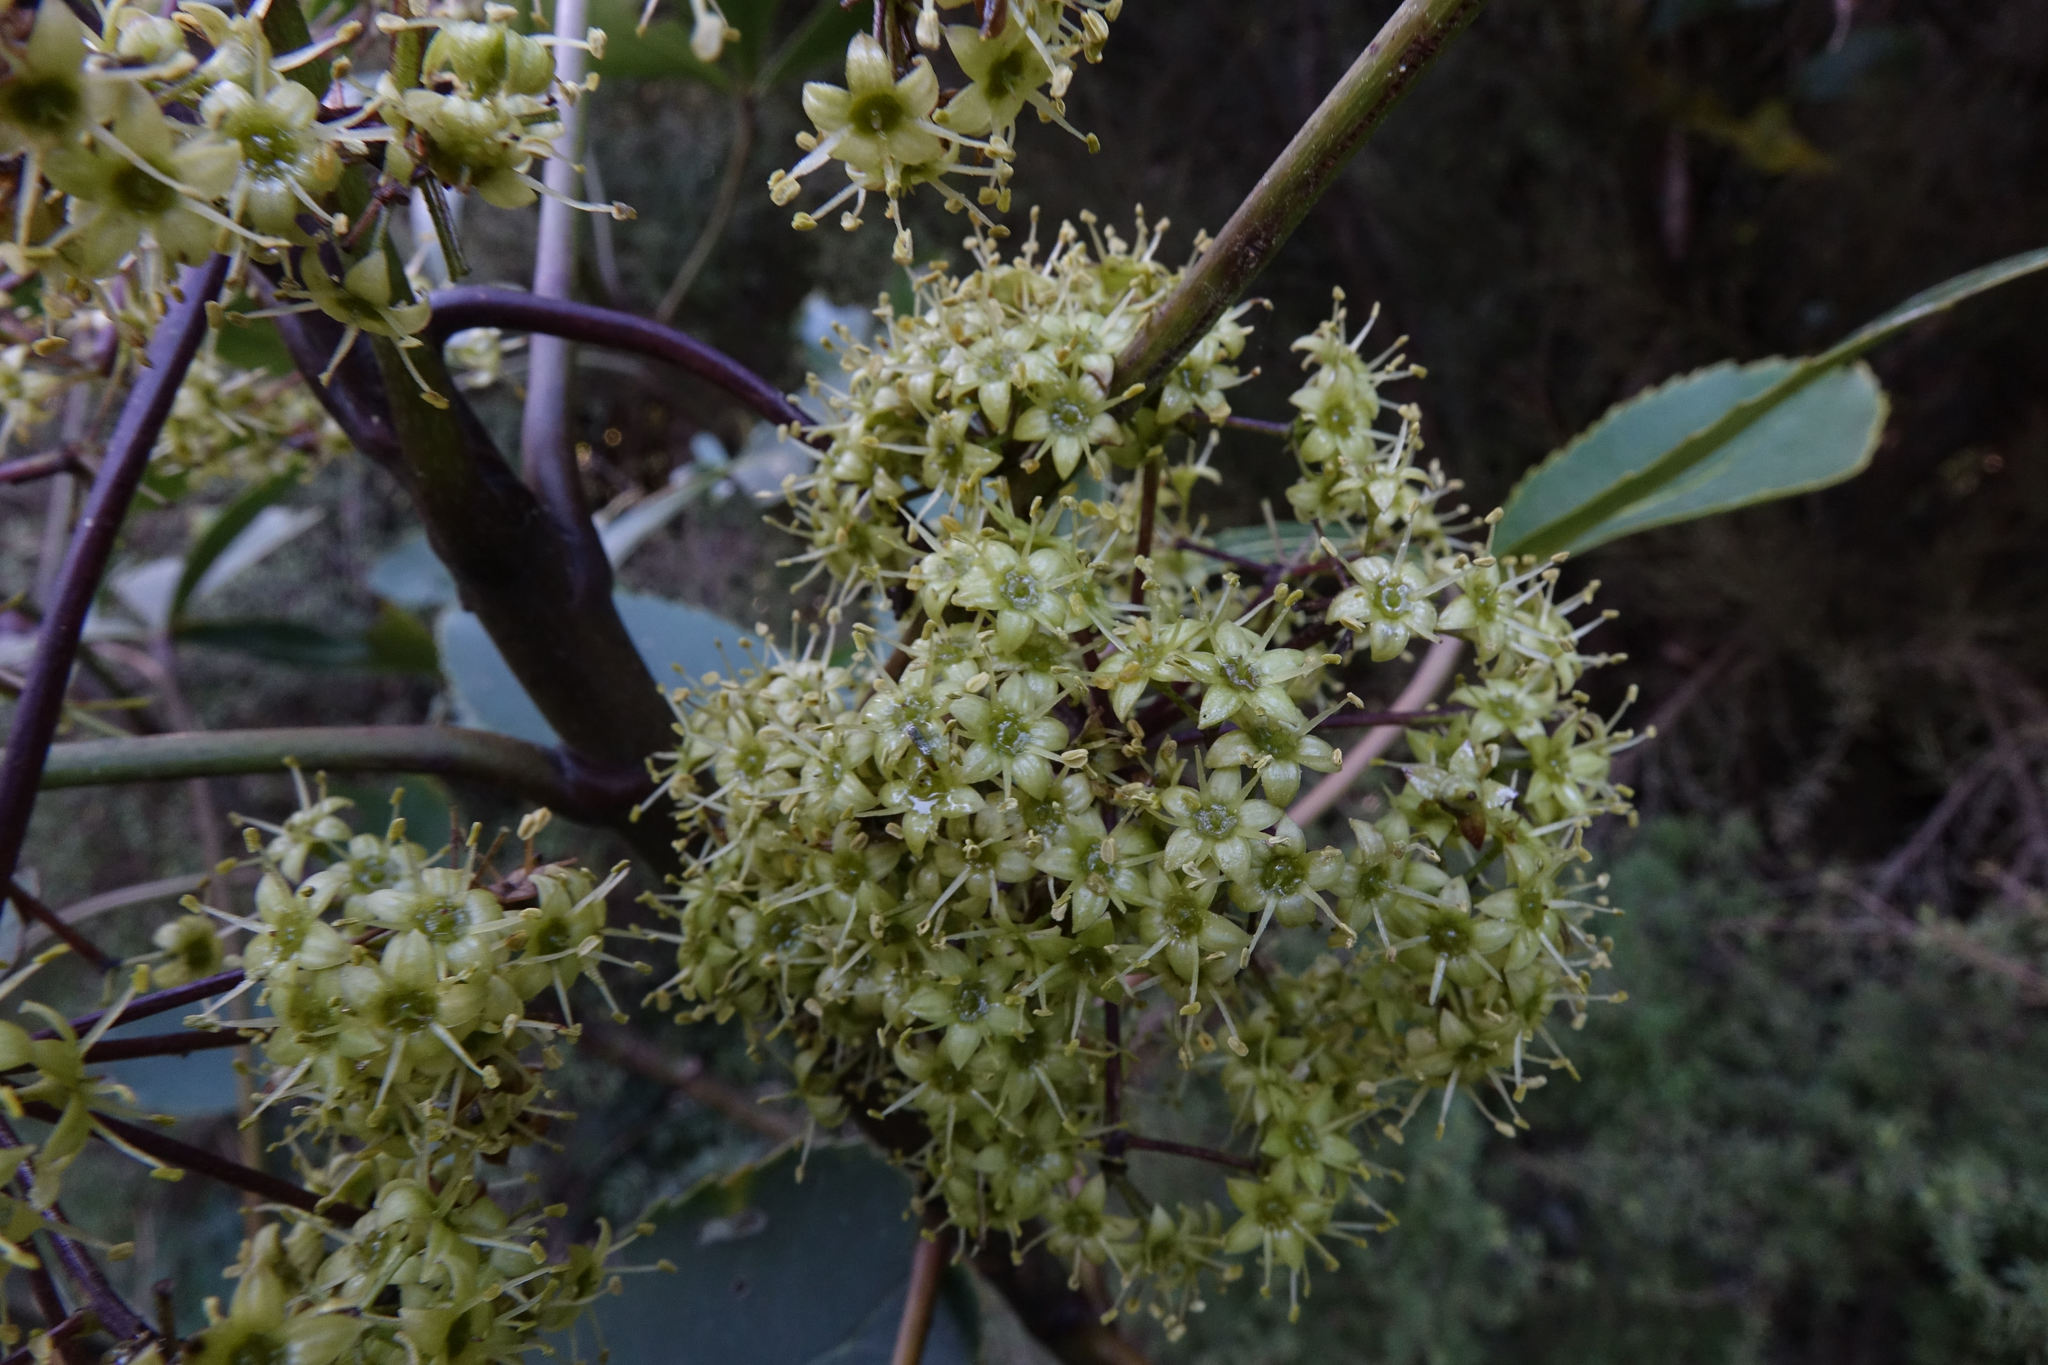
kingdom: Plantae
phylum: Tracheophyta
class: Magnoliopsida
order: Apiales
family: Araliaceae
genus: Neopanax
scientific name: Neopanax colensoi
